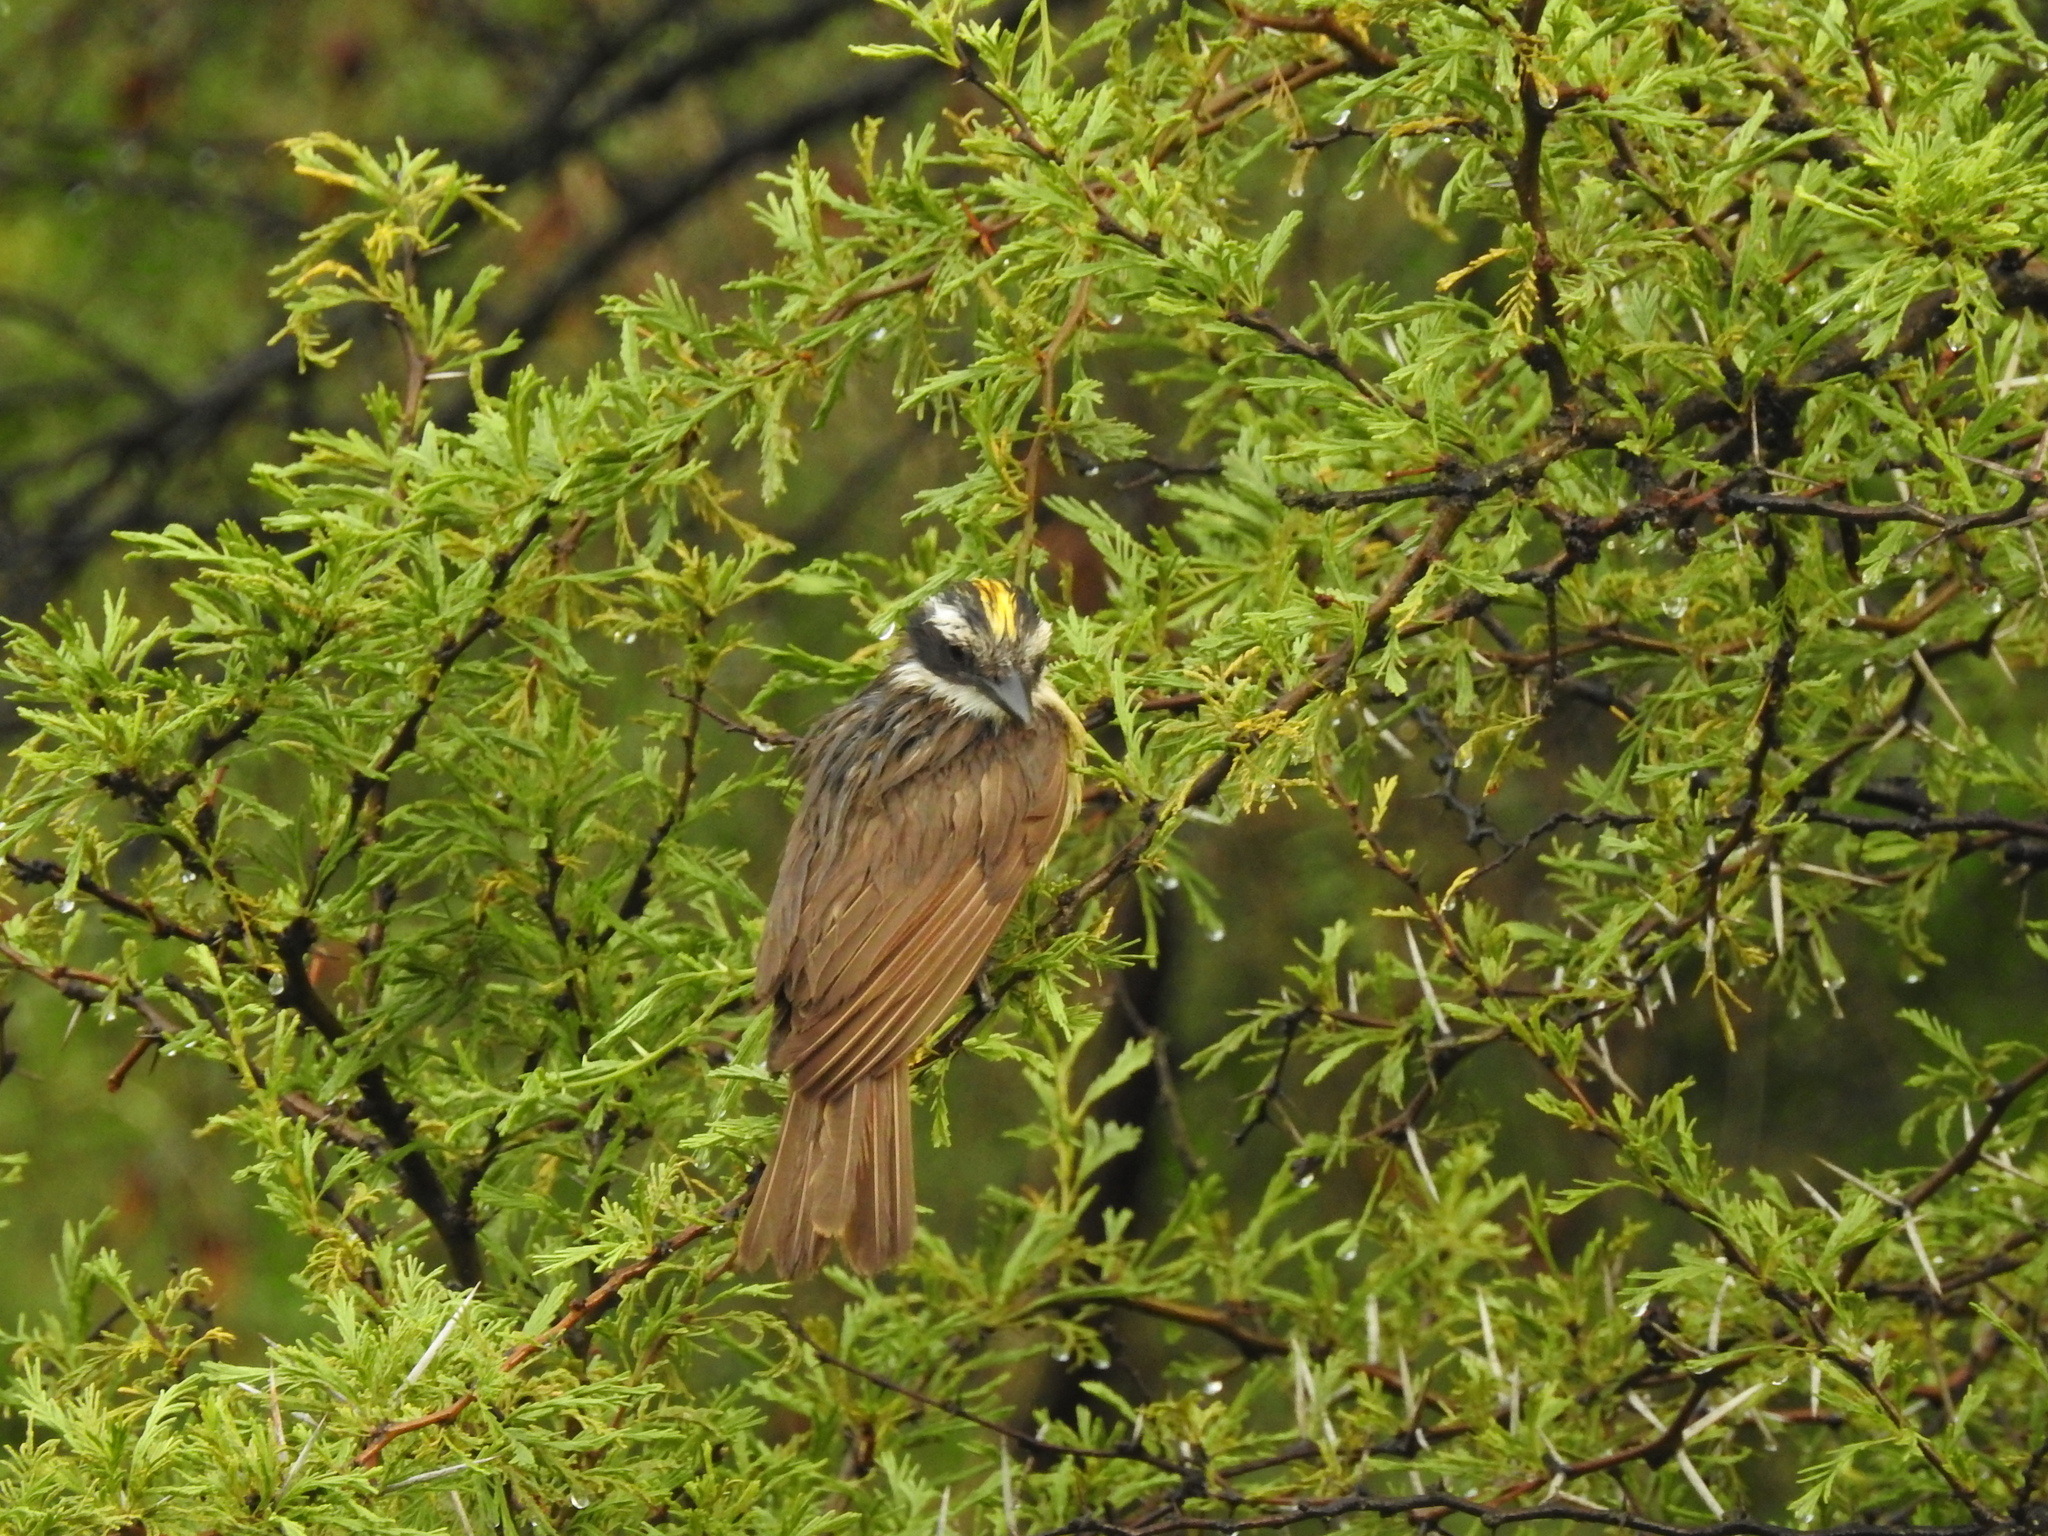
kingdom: Animalia
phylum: Chordata
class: Aves
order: Passeriformes
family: Tyrannidae
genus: Pitangus
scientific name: Pitangus sulphuratus
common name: Great kiskadee
